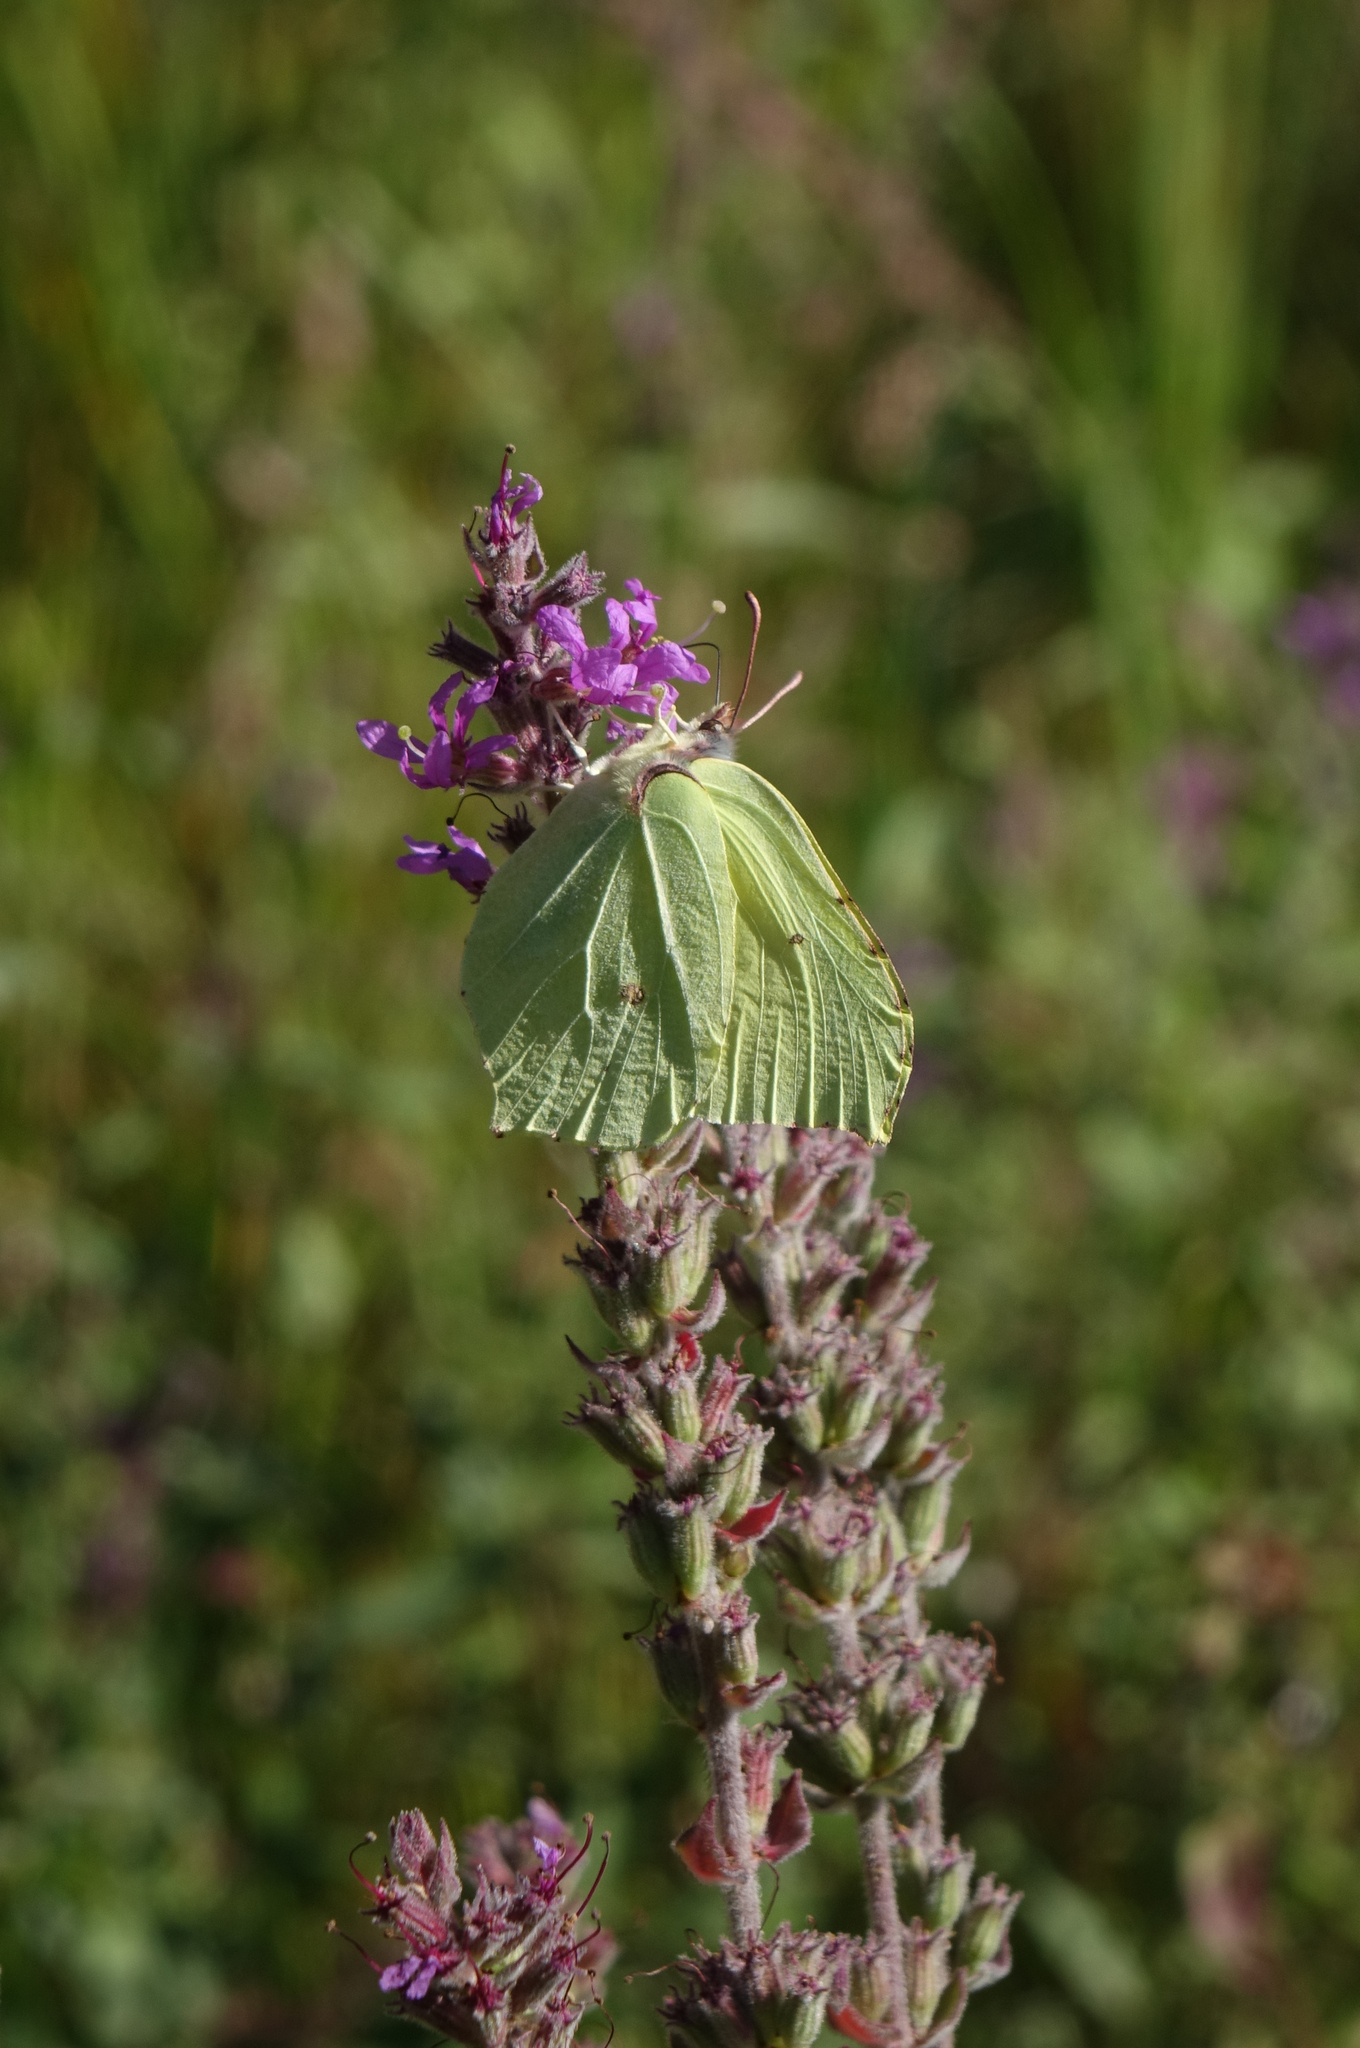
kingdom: Animalia
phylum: Arthropoda
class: Insecta
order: Lepidoptera
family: Pieridae
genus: Gonepteryx
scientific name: Gonepteryx rhamni
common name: Brimstone
